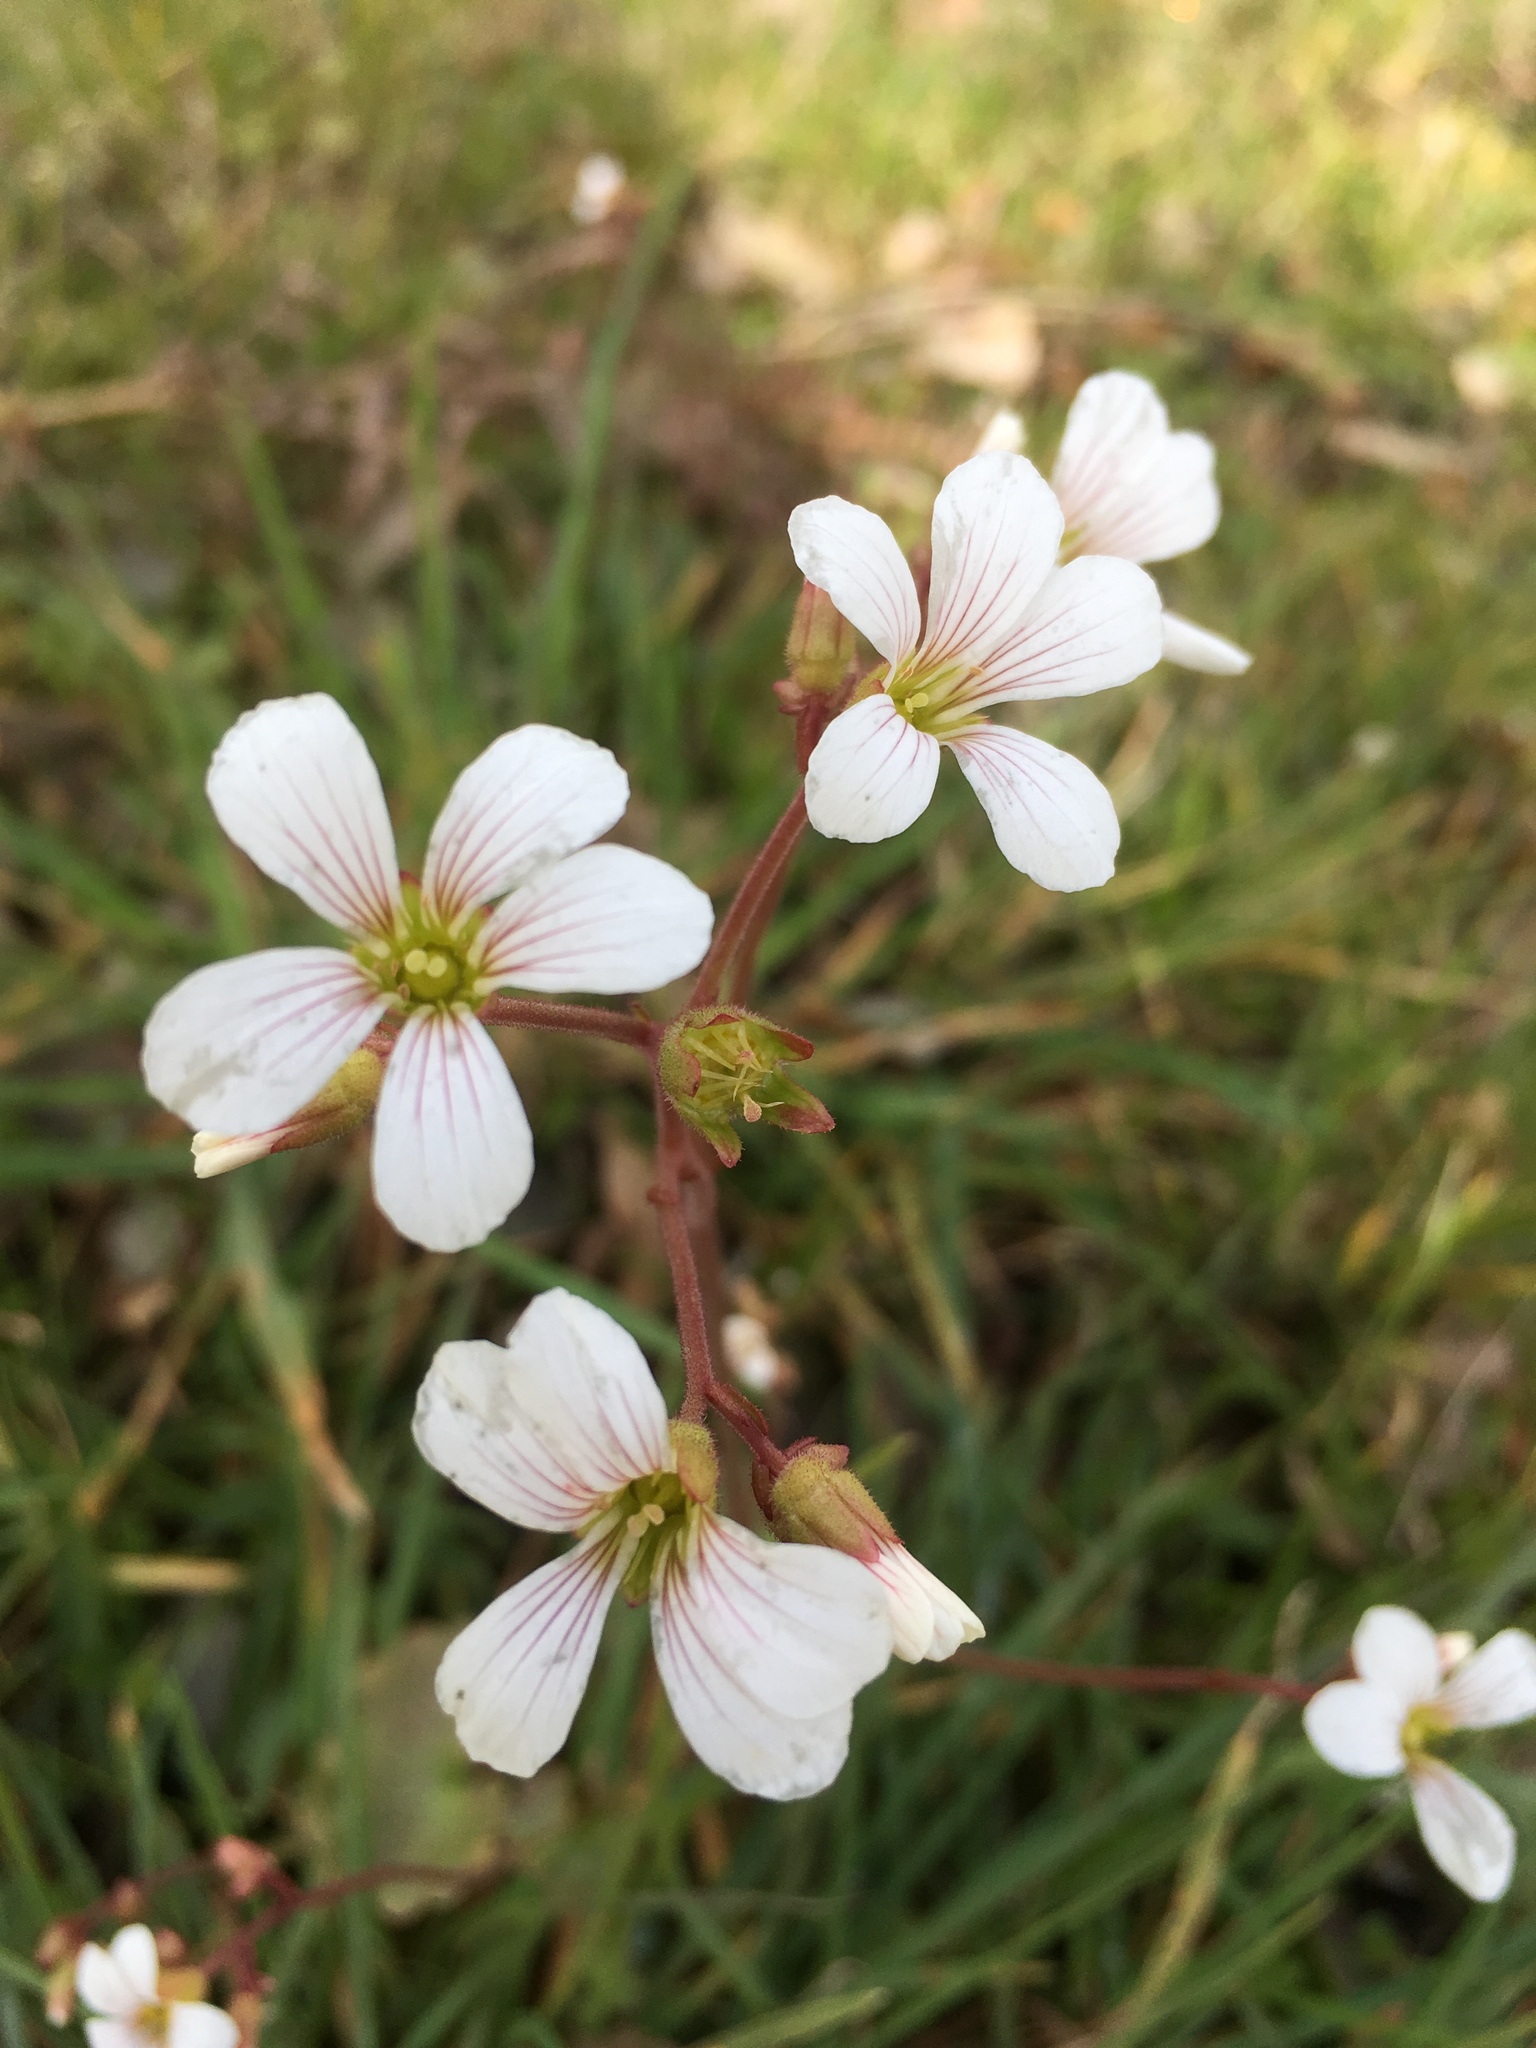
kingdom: Plantae
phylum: Tracheophyta
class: Magnoliopsida
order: Saxifragales
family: Saxifragaceae
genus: Saxifraga
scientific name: Saxifraga granulata
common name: Meadow saxifrage
